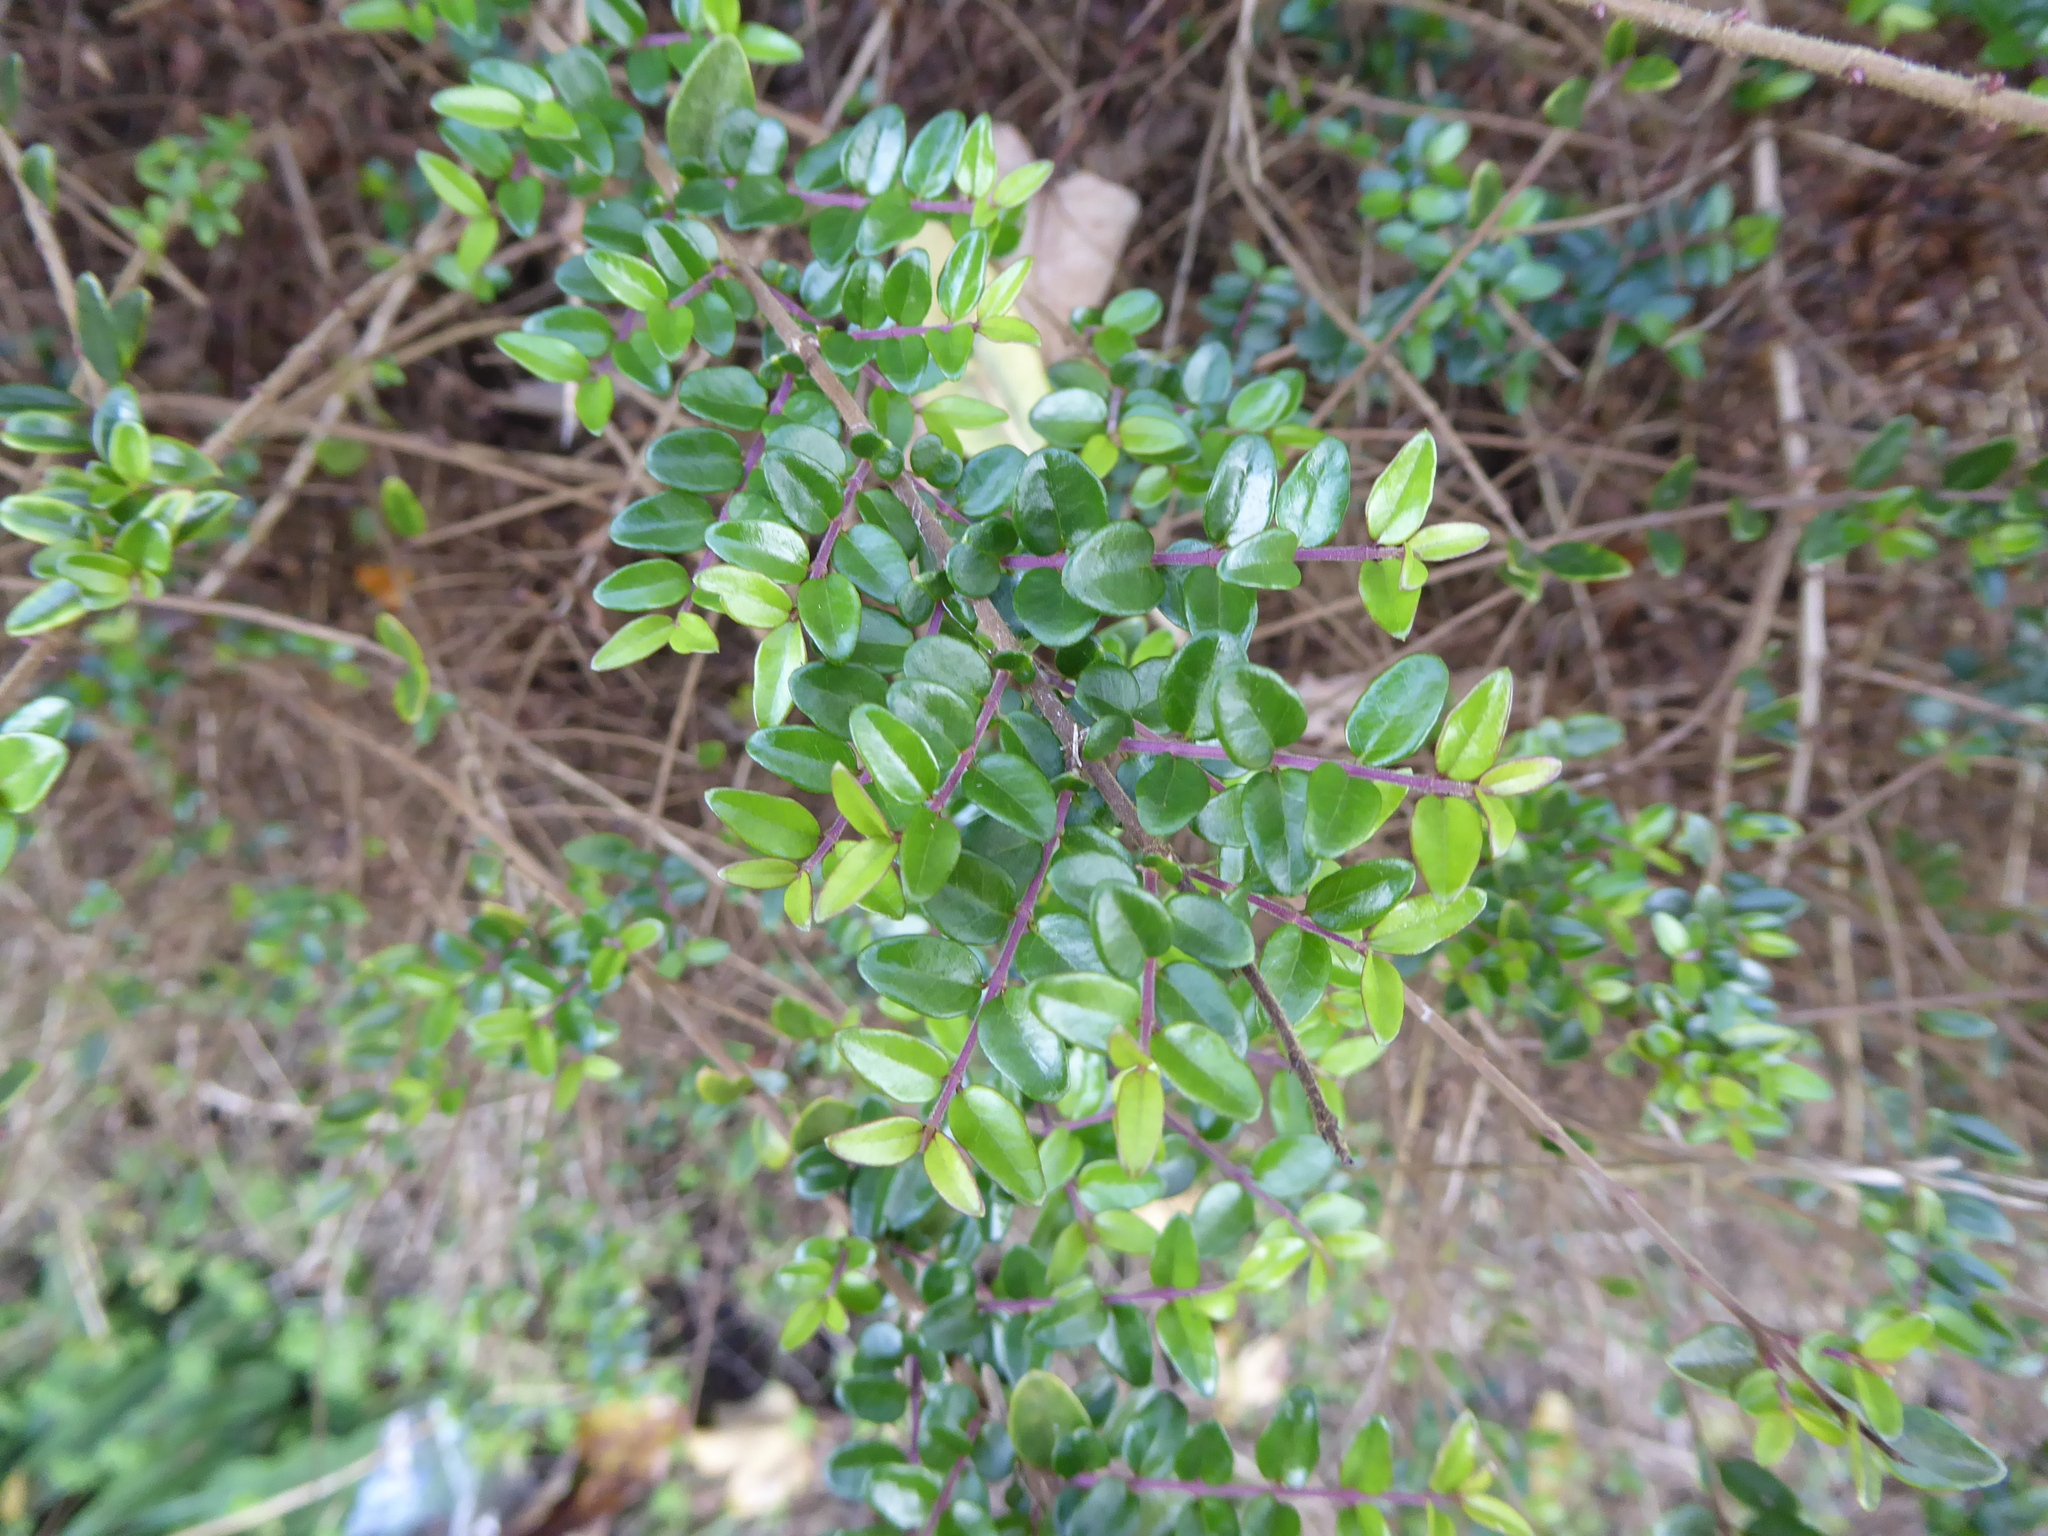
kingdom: Plantae
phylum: Tracheophyta
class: Magnoliopsida
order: Dipsacales
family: Caprifoliaceae
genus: Lonicera
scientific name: Lonicera pileata
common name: Box-leaved honeysuckle
